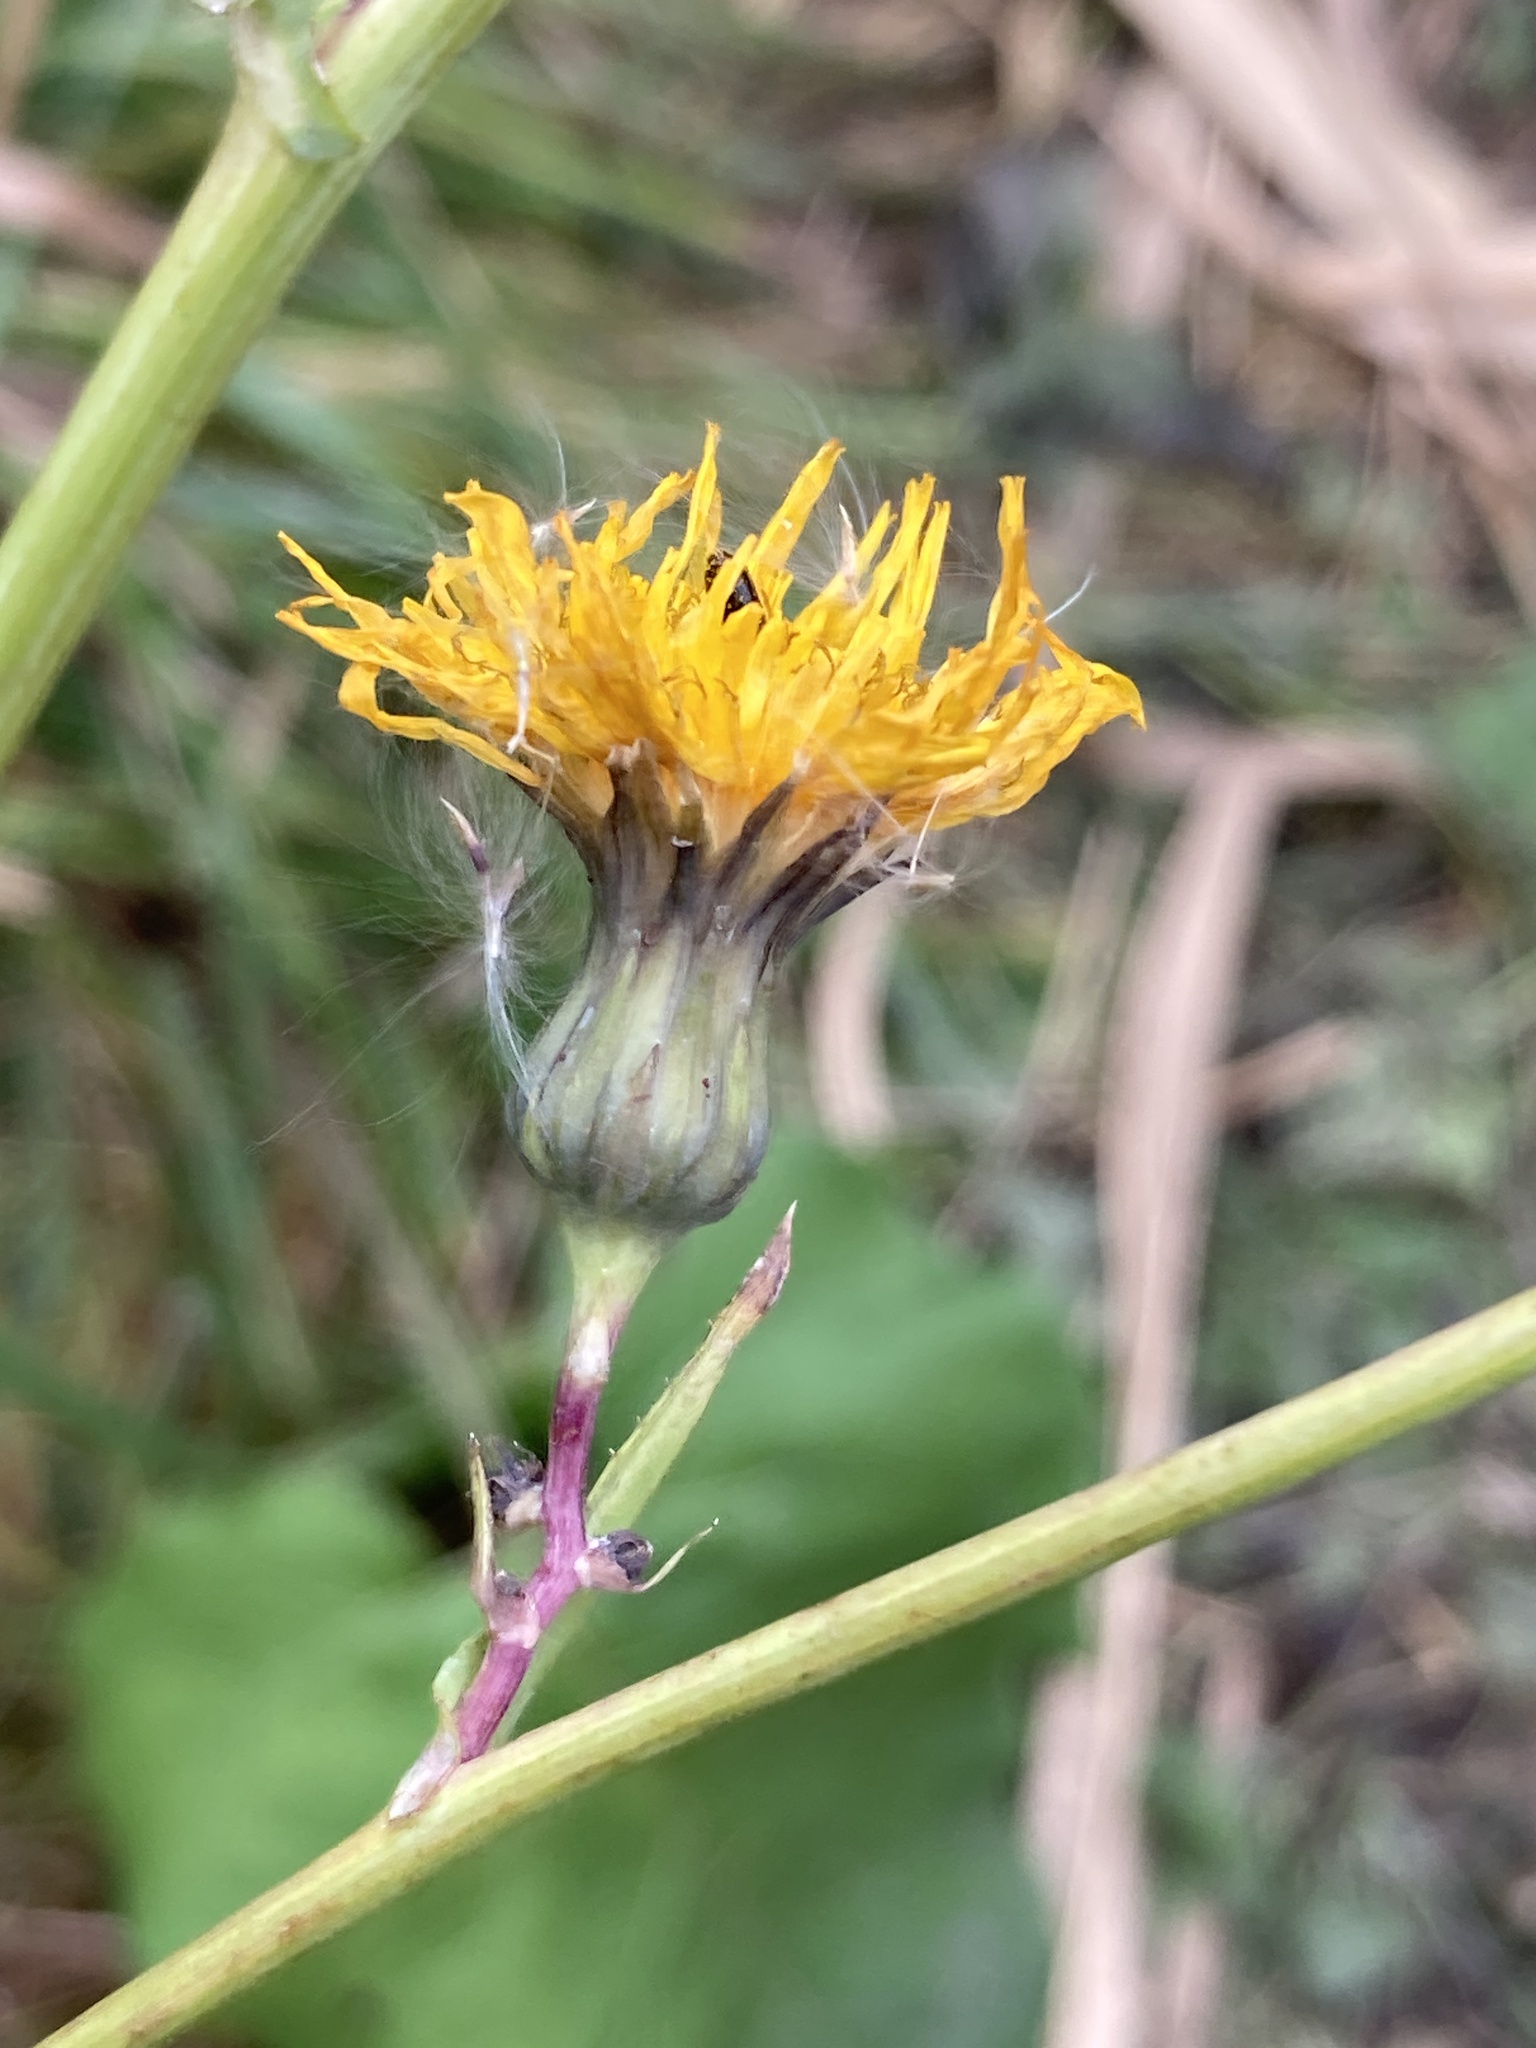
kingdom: Plantae
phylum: Tracheophyta
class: Magnoliopsida
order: Asterales
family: Asteraceae
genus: Sonchus
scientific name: Sonchus arvensis
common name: Perennial sow-thistle
